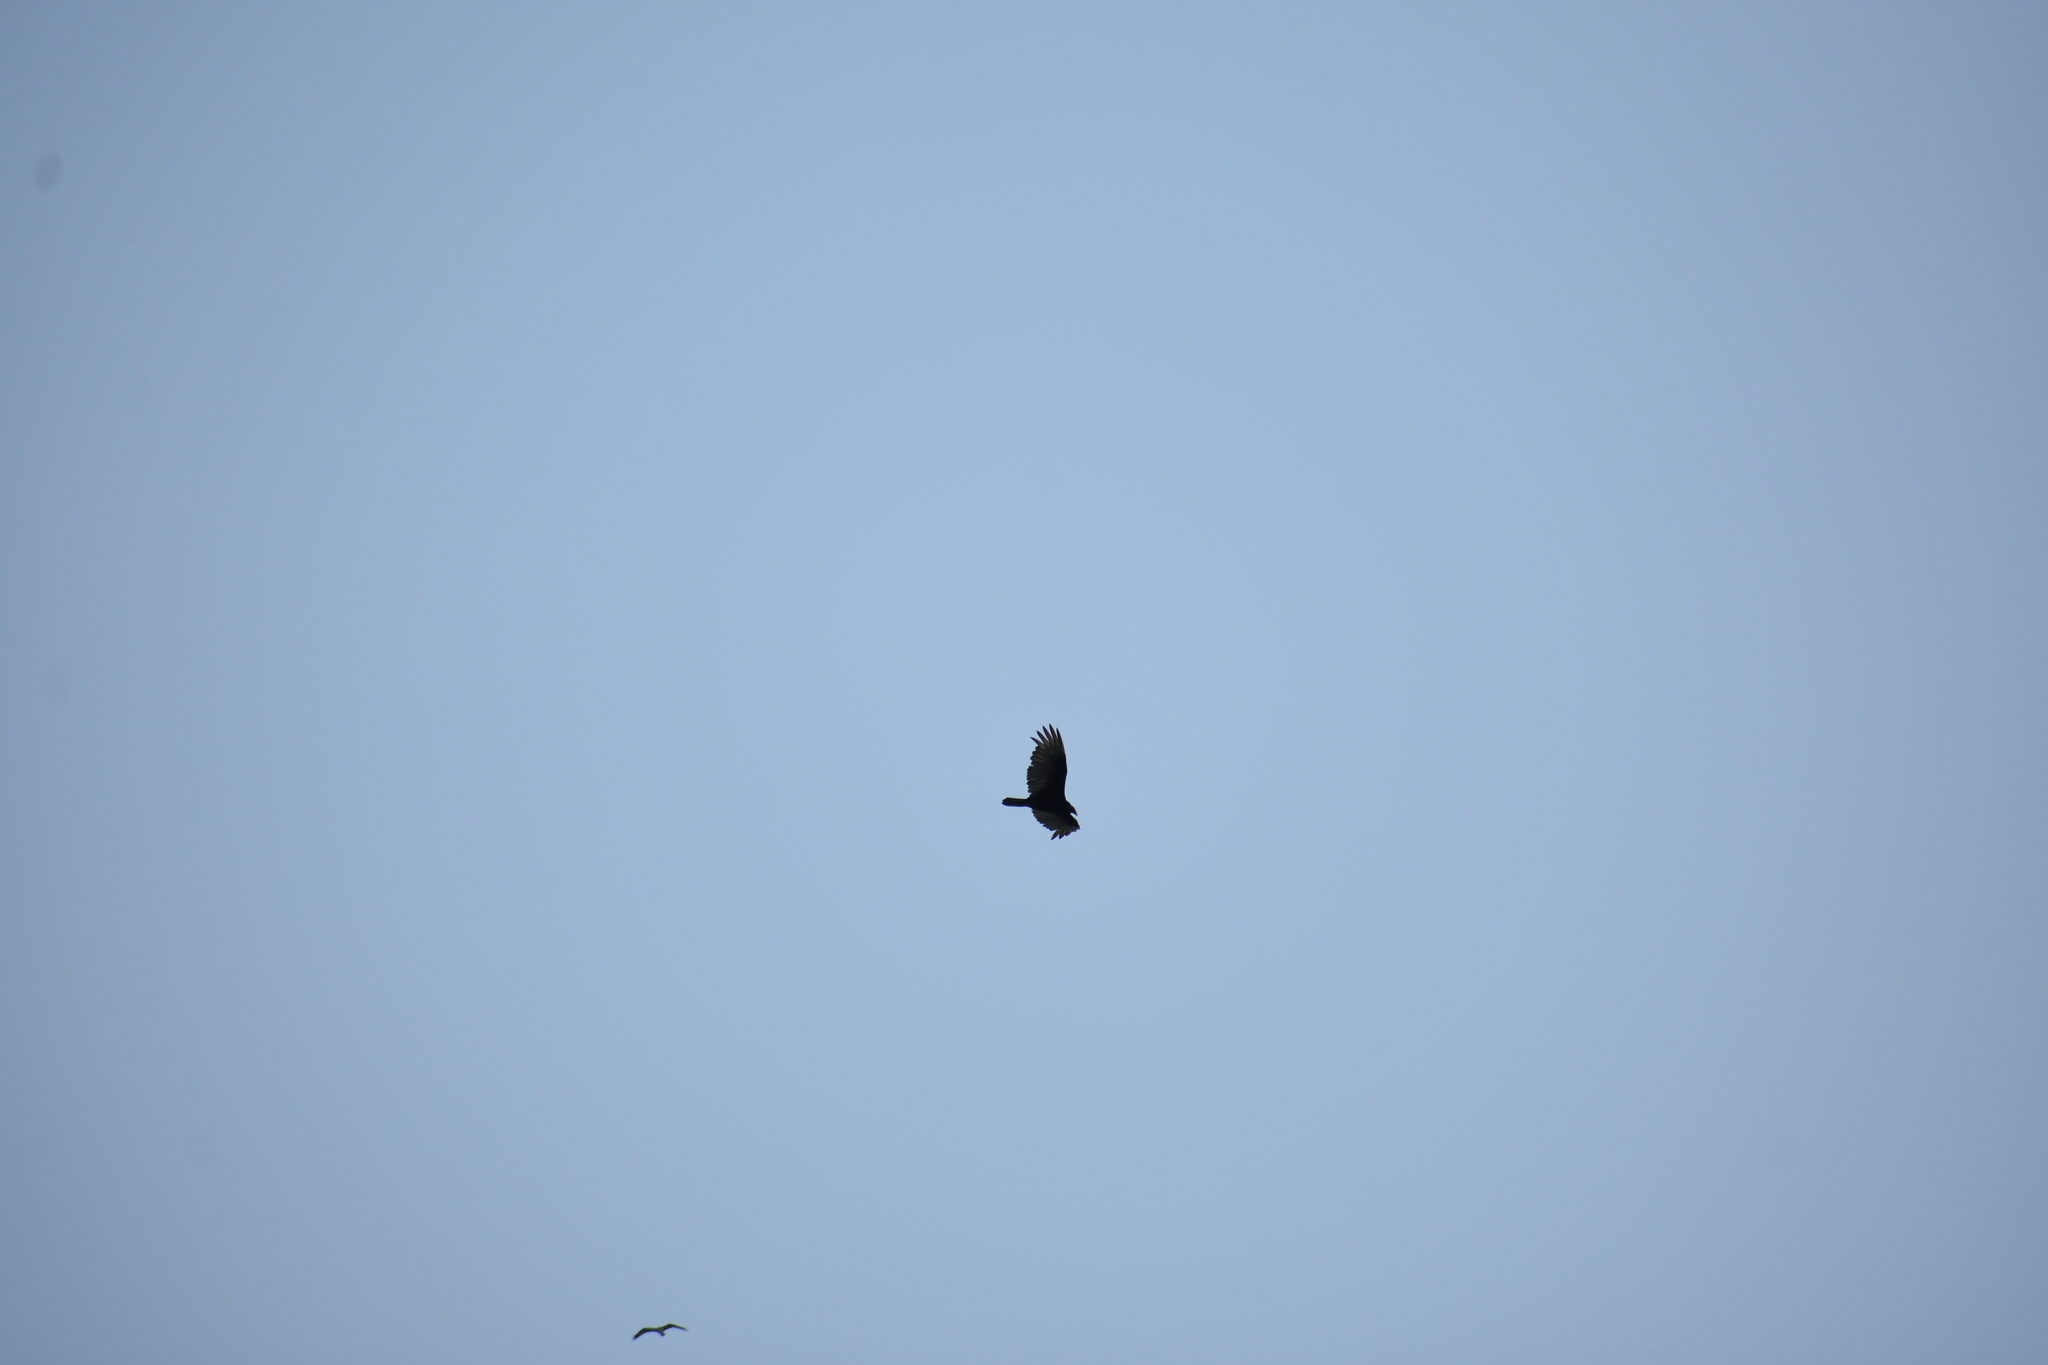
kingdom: Animalia
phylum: Chordata
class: Aves
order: Accipitriformes
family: Cathartidae
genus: Cathartes
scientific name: Cathartes aura
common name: Turkey vulture
